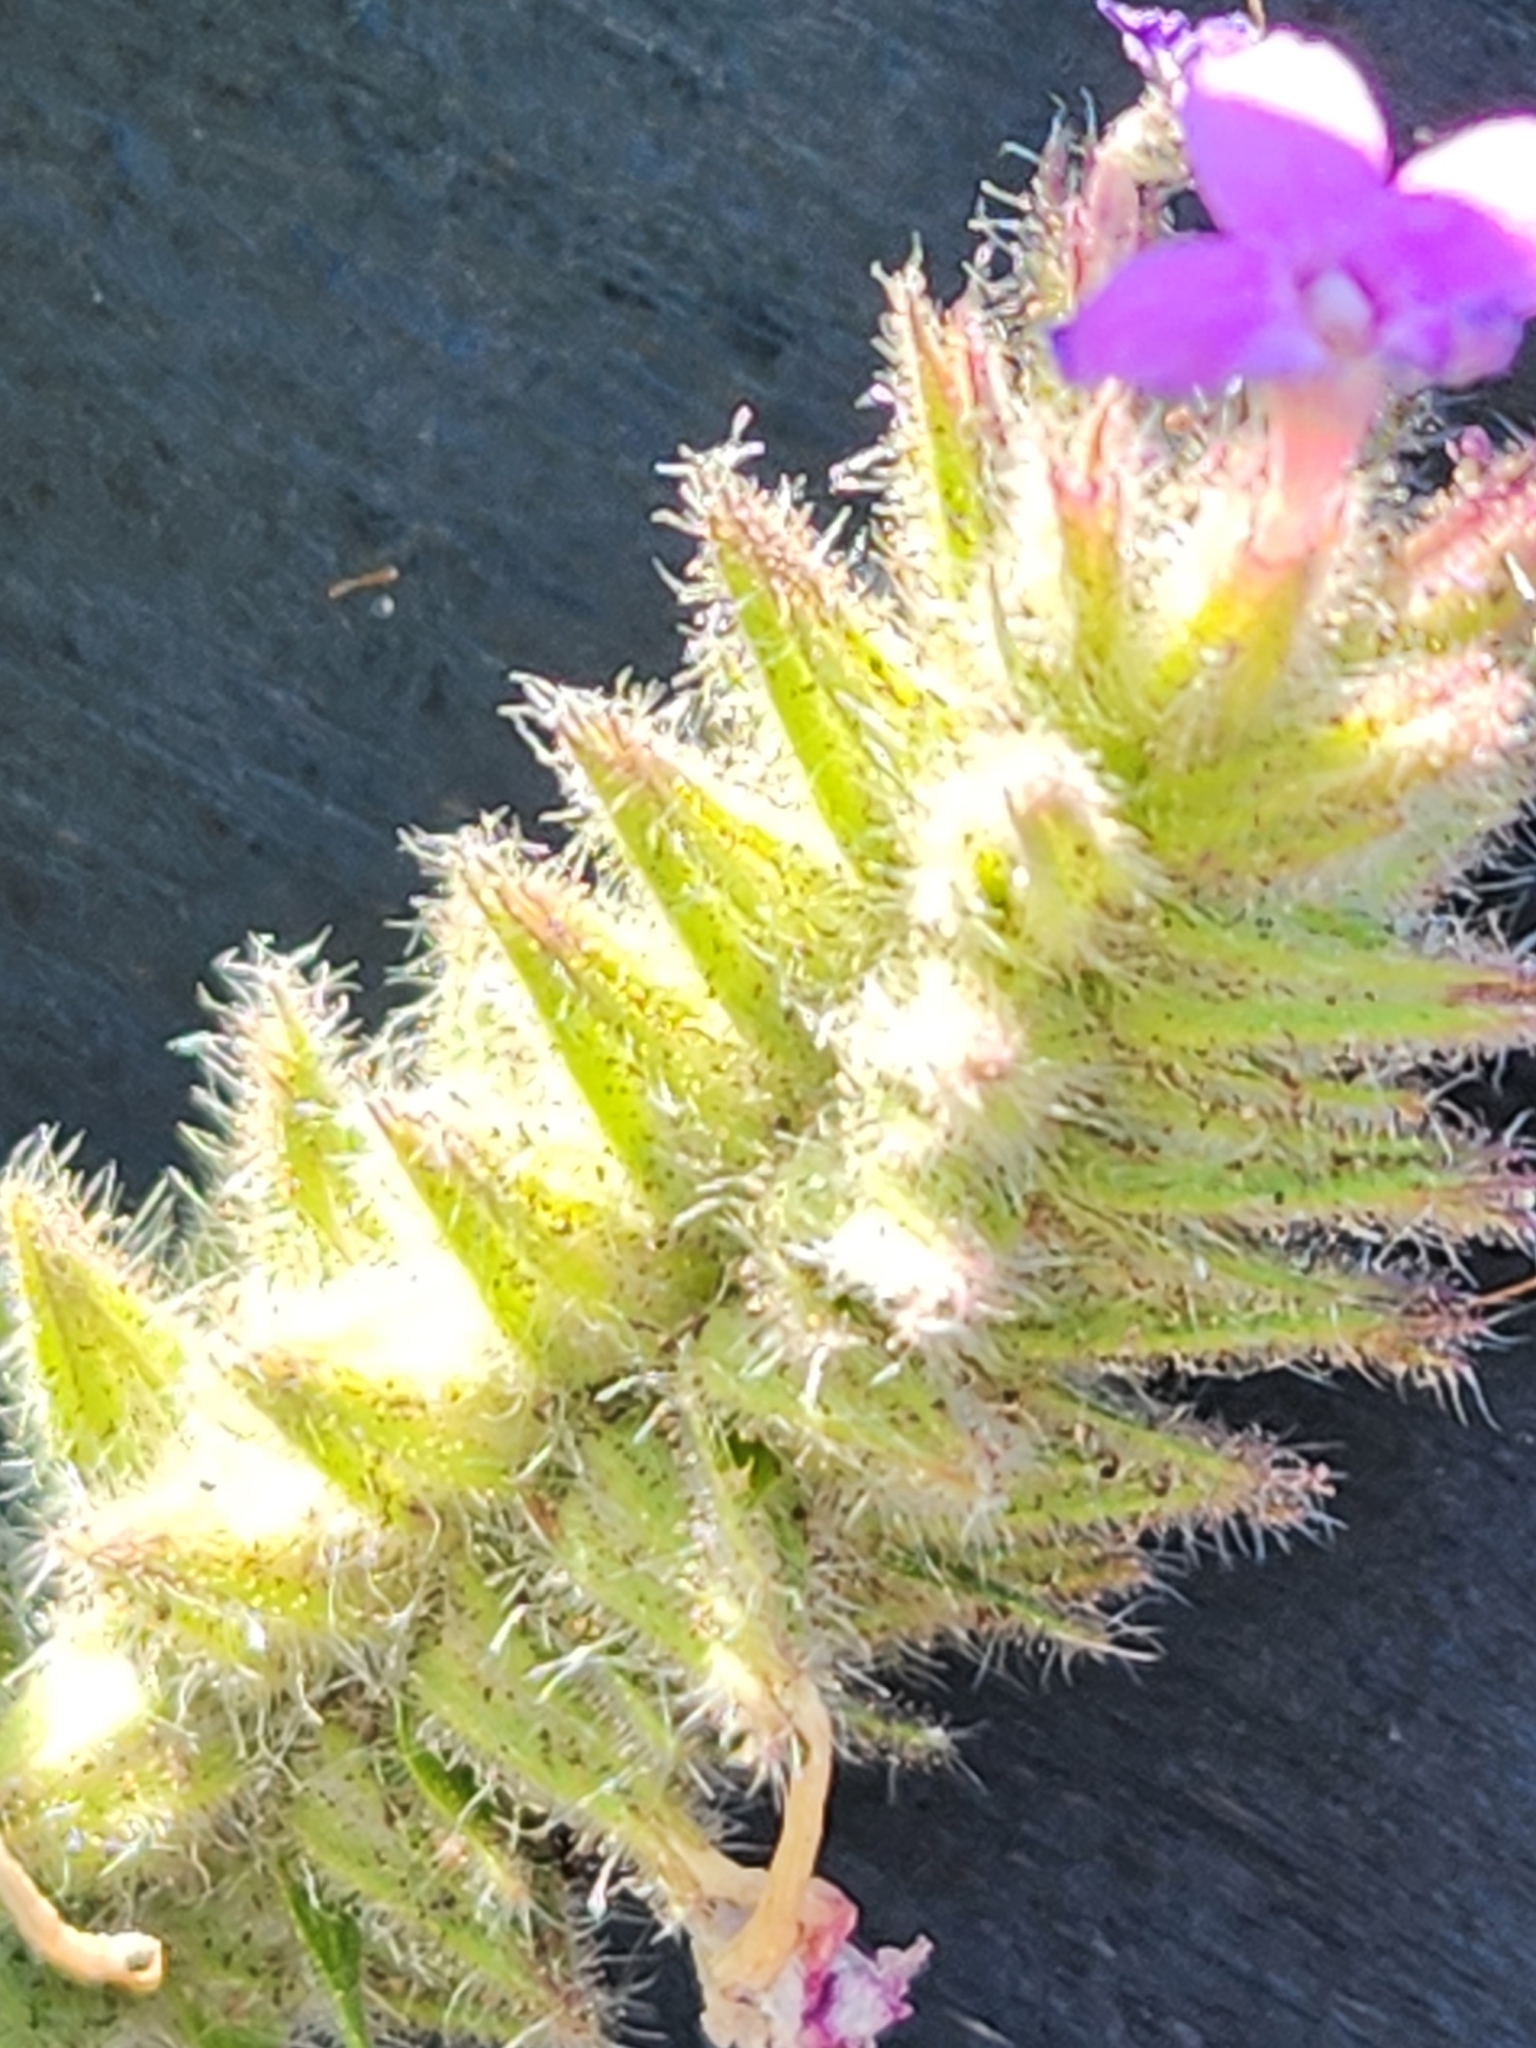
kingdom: Plantae
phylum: Tracheophyta
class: Magnoliopsida
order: Lamiales
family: Verbenaceae
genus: Verbena
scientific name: Verbena tumidula
